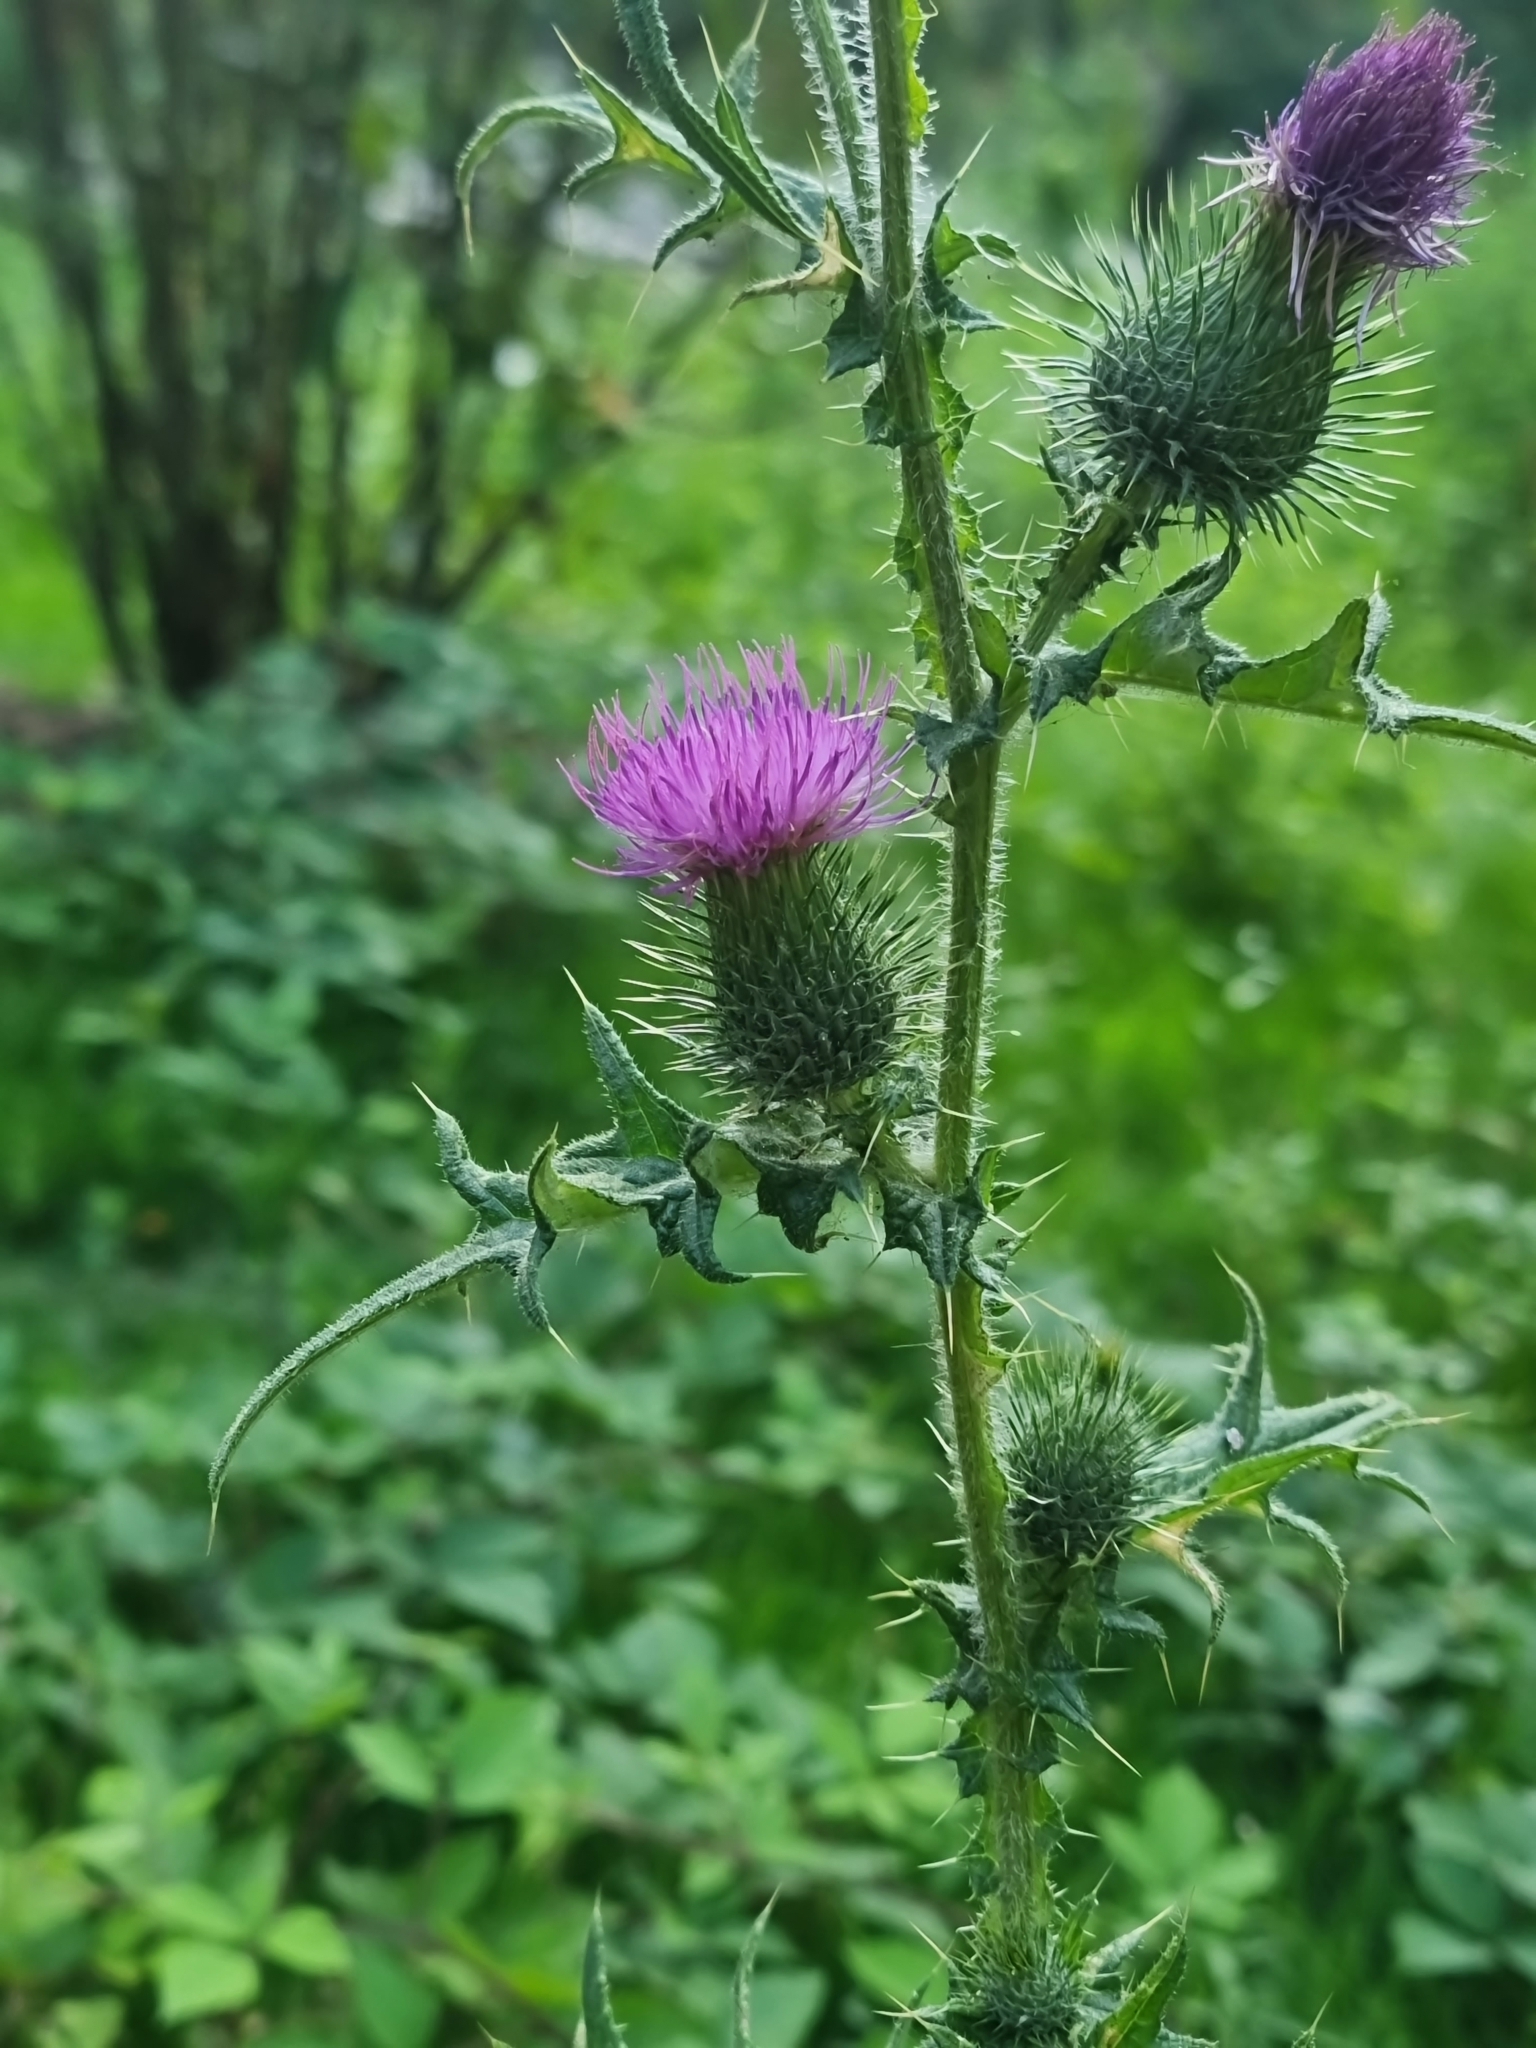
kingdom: Plantae
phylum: Tracheophyta
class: Magnoliopsida
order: Asterales
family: Asteraceae
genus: Cirsium
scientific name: Cirsium vulgare
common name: Bull thistle
